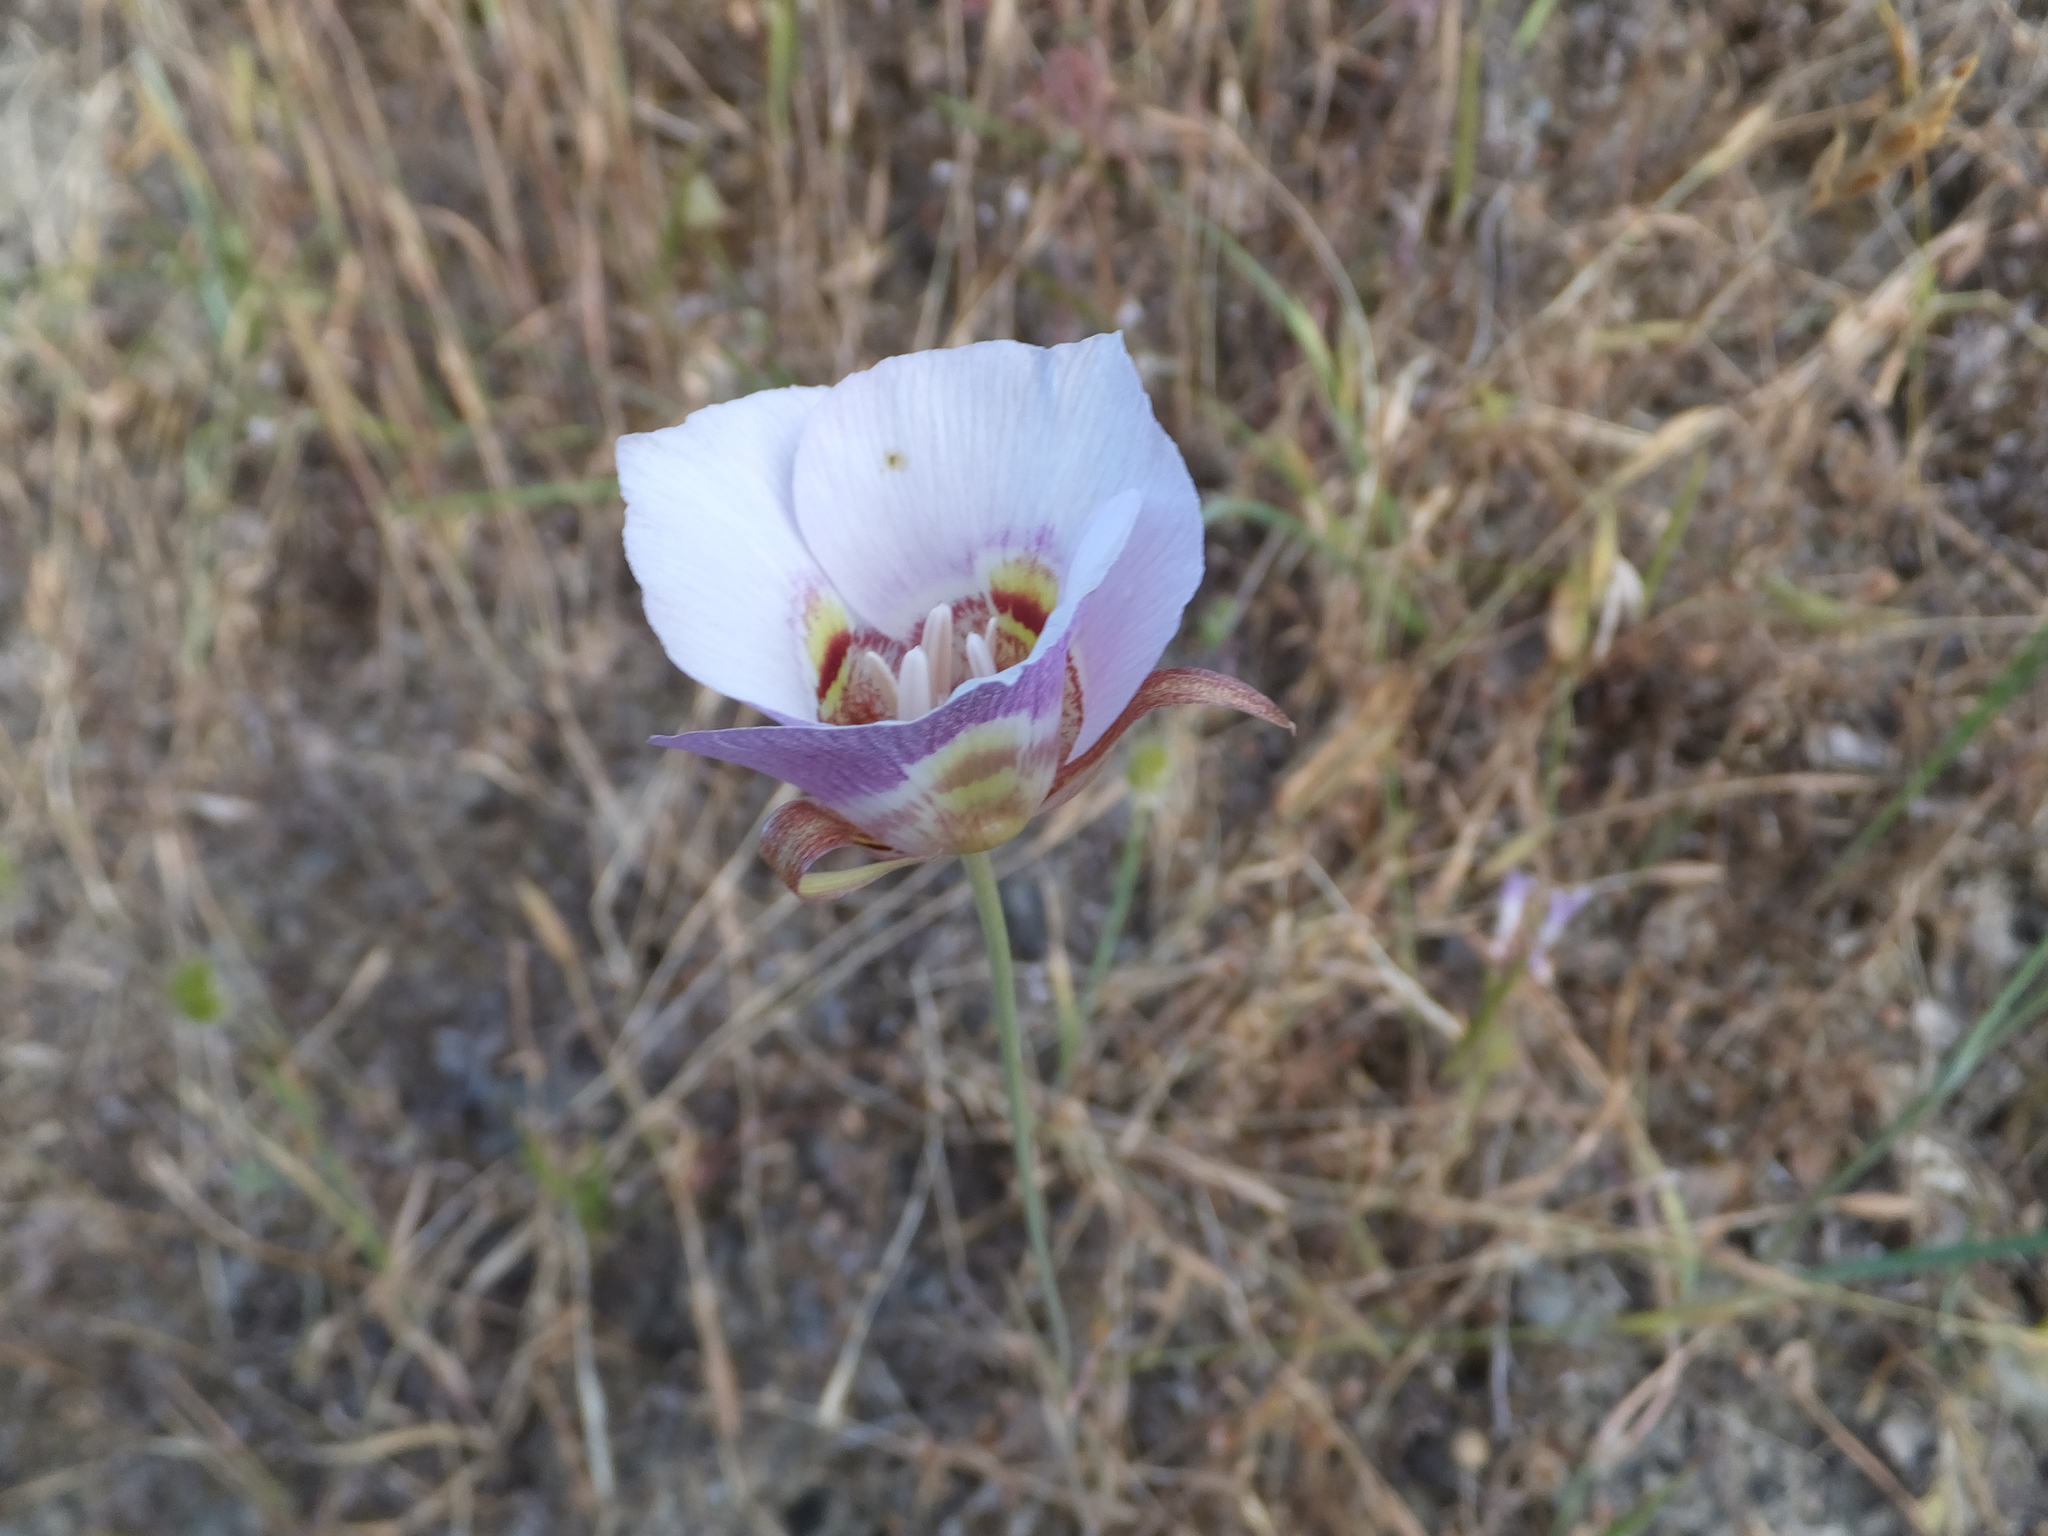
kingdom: Plantae
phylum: Tracheophyta
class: Liliopsida
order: Liliales
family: Liliaceae
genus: Calochortus
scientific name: Calochortus argillosus
